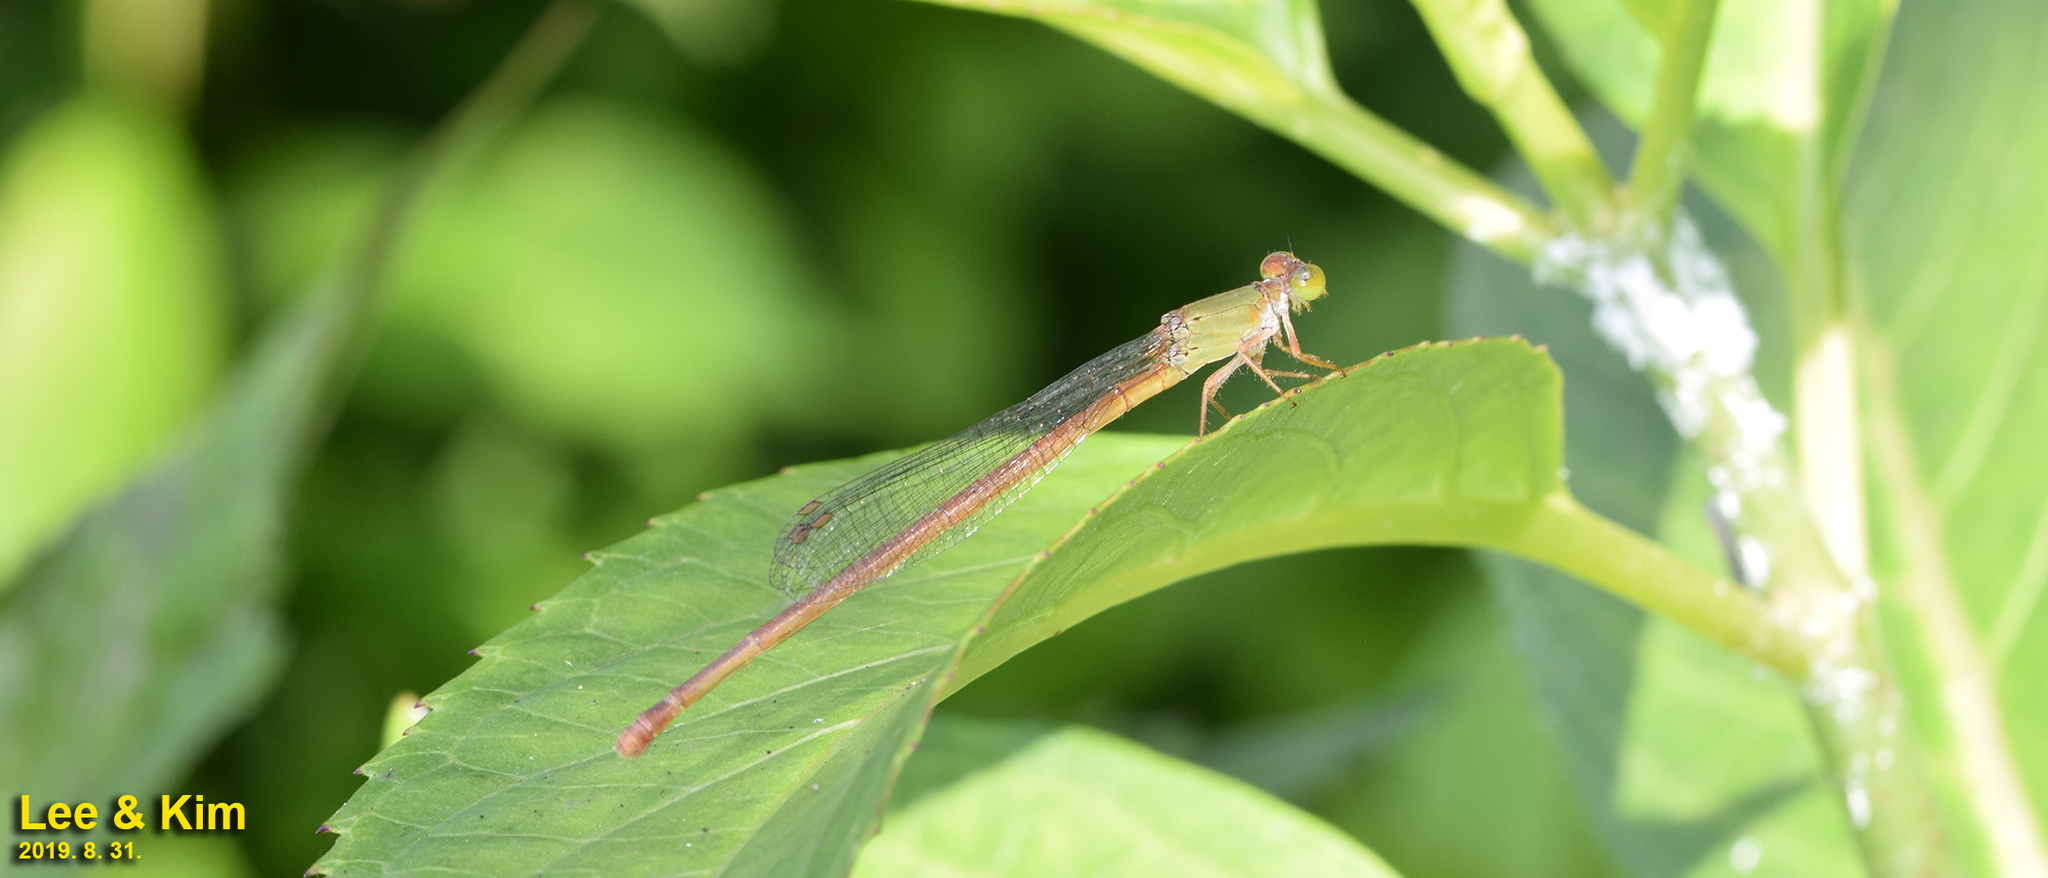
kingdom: Animalia
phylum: Arthropoda
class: Insecta
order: Odonata
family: Coenagrionidae
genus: Ceriagrion
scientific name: Ceriagrion nipponicum
